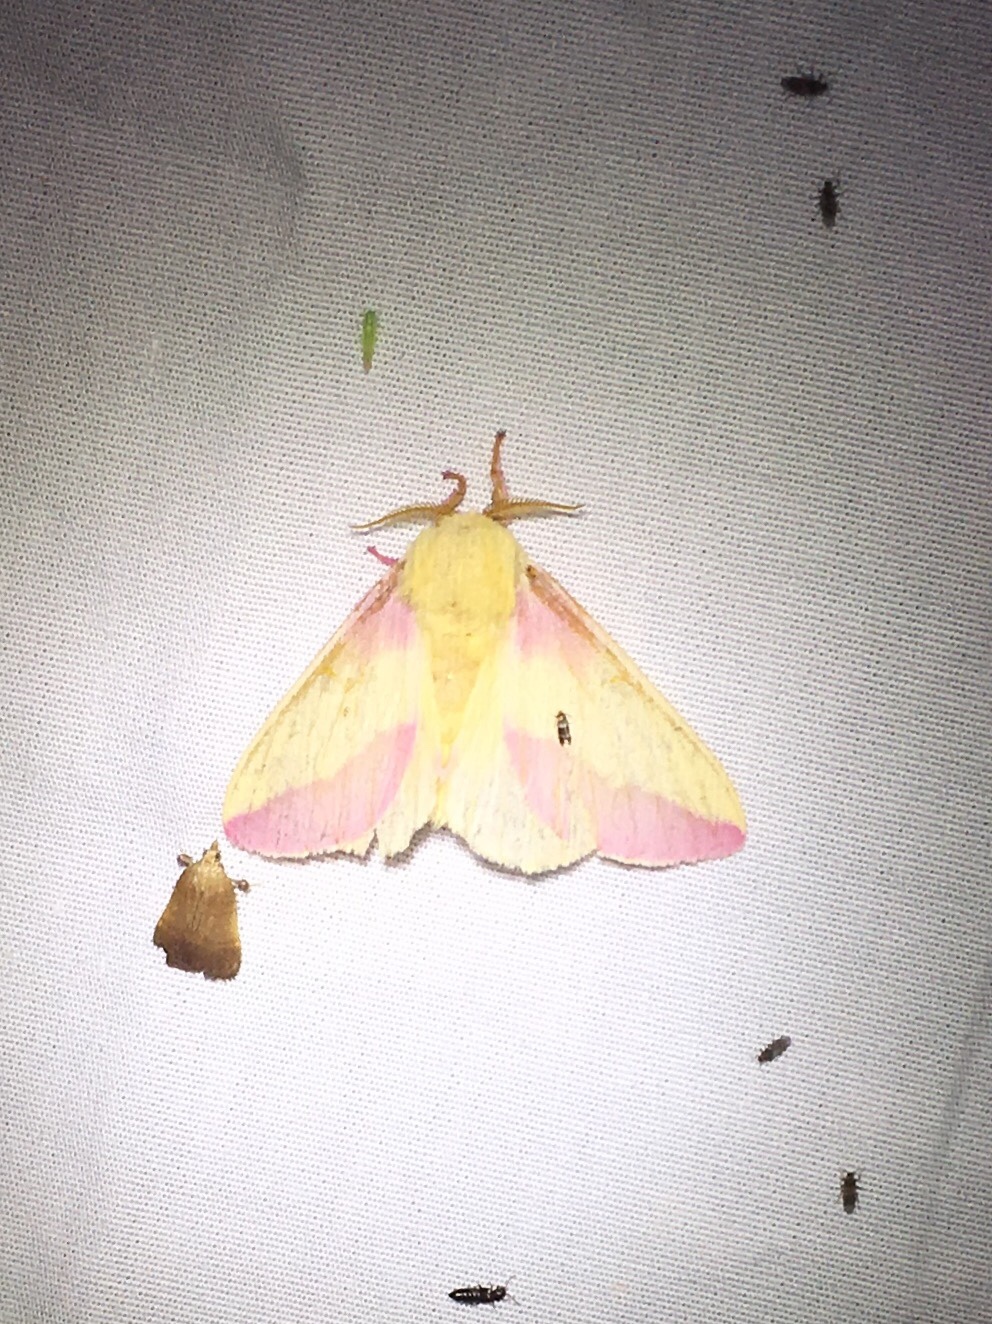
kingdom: Animalia
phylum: Arthropoda
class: Insecta
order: Lepidoptera
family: Saturniidae
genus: Dryocampa
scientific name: Dryocampa rubicunda
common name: Rosy maple moth
